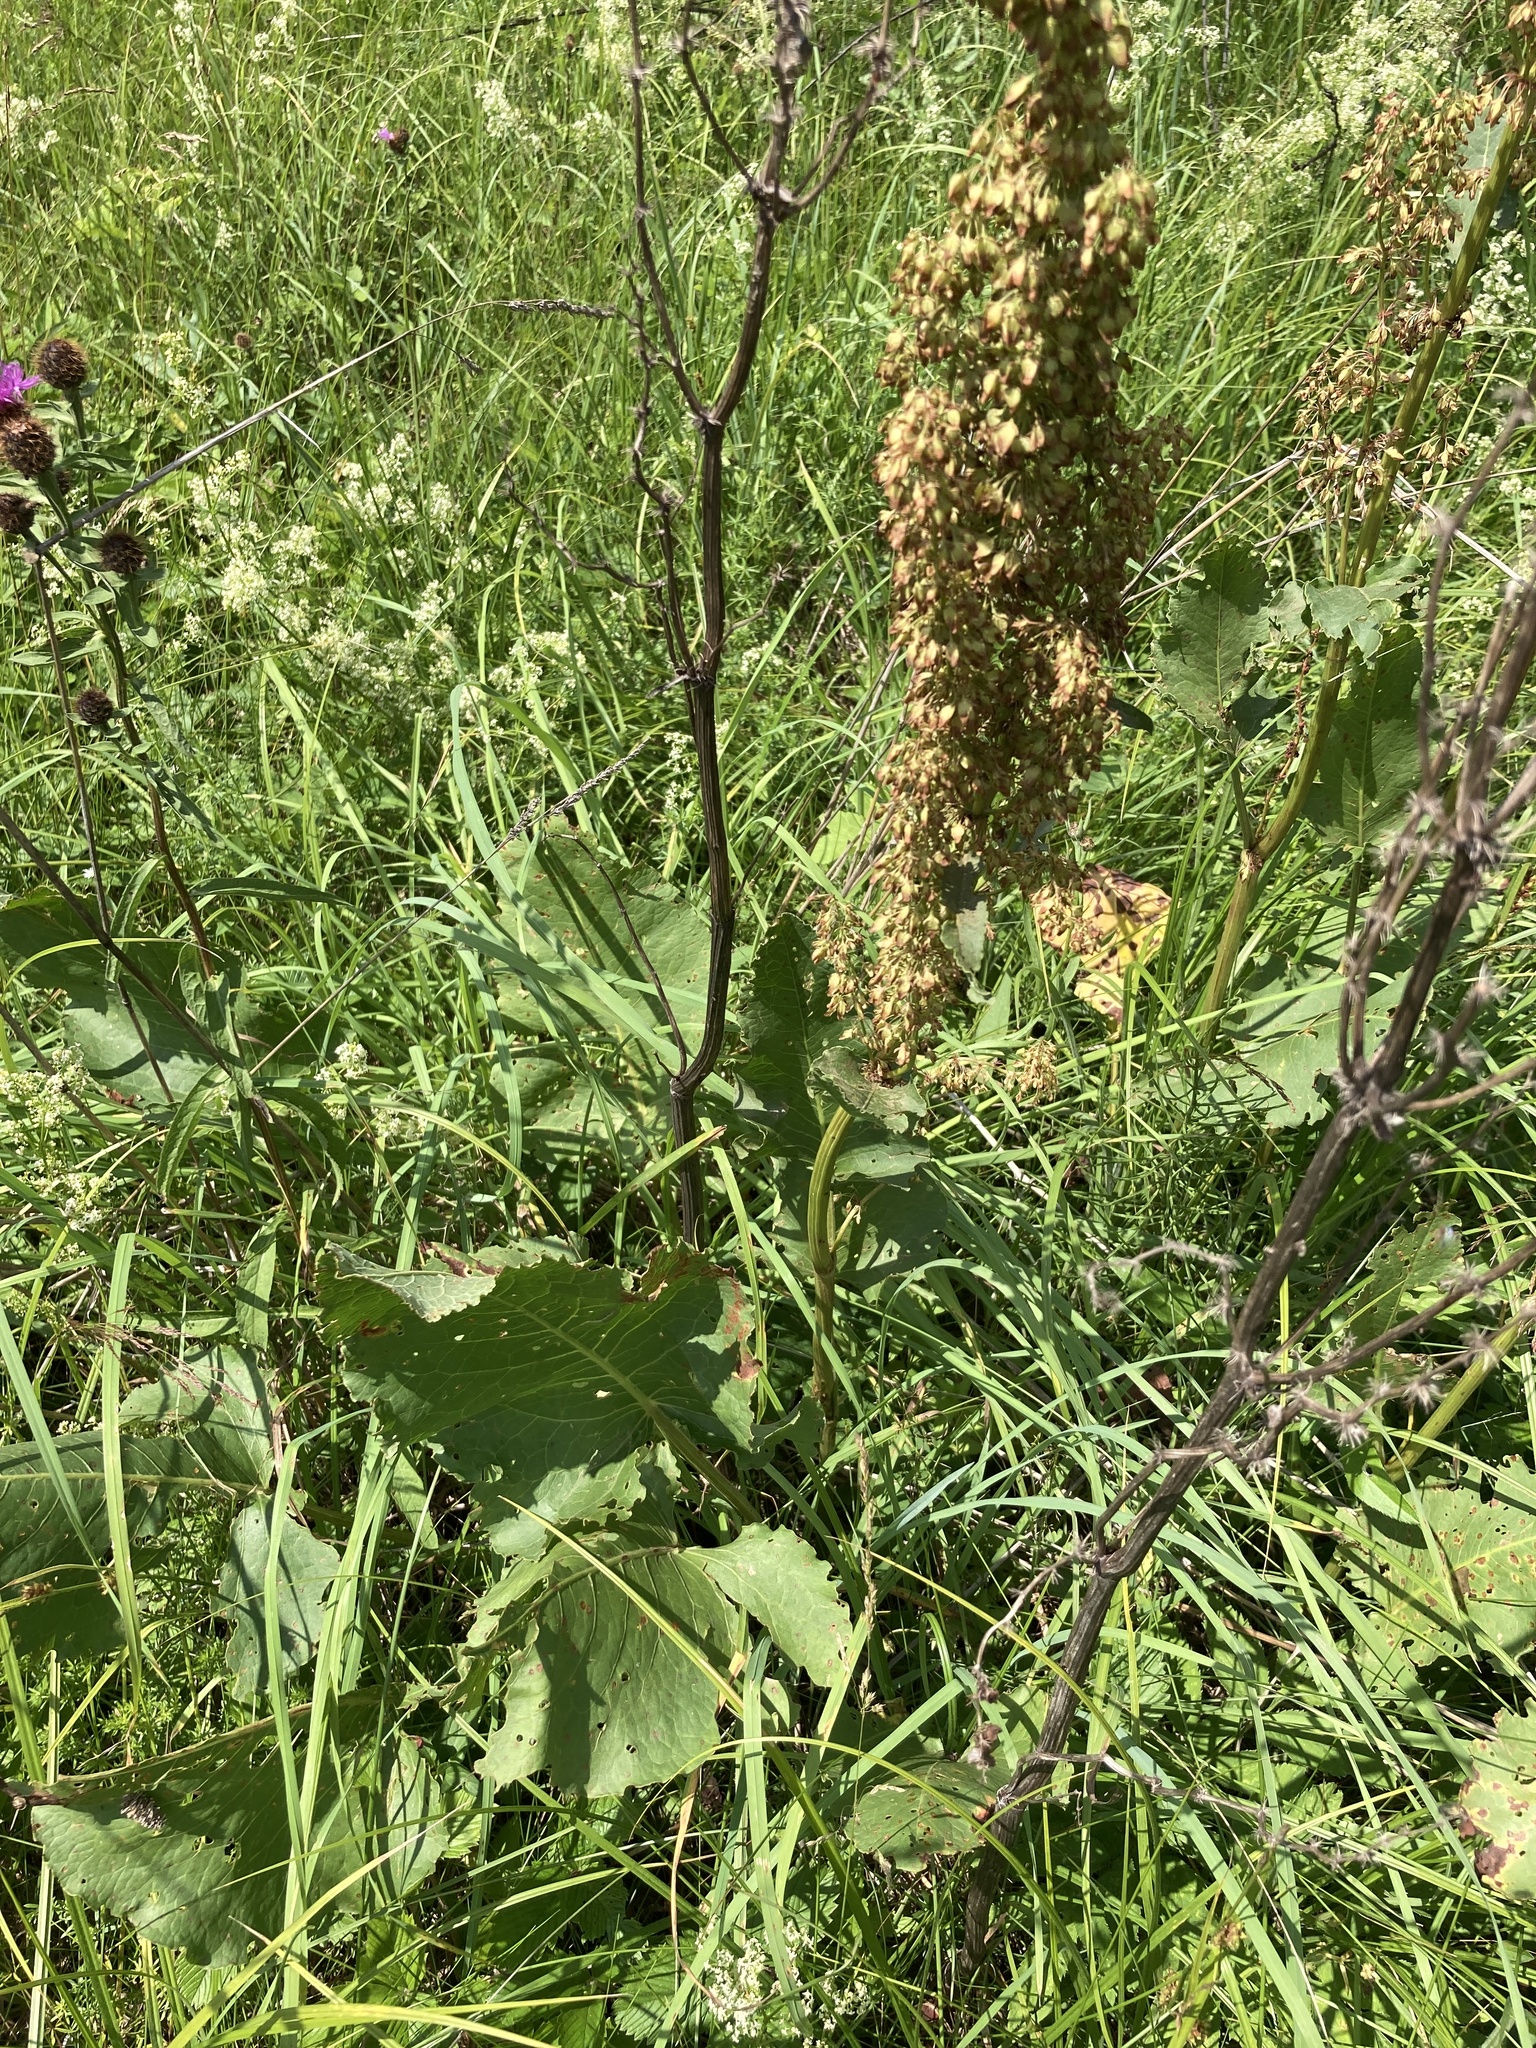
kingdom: Plantae
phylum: Tracheophyta
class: Magnoliopsida
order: Caryophyllales
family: Polygonaceae
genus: Rumex
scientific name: Rumex confertus
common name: Russian dock
